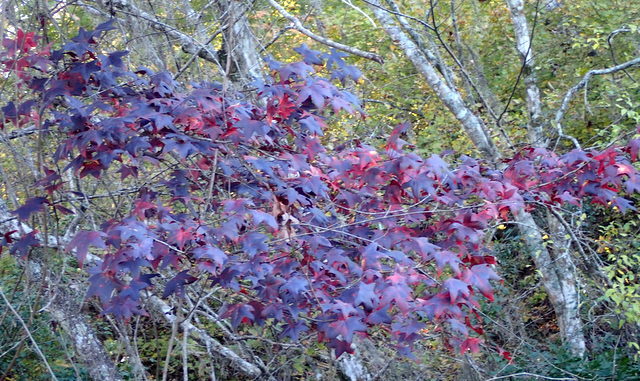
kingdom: Plantae
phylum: Tracheophyta
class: Magnoliopsida
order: Saxifragales
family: Altingiaceae
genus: Liquidambar
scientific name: Liquidambar styraciflua
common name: Sweet gum
